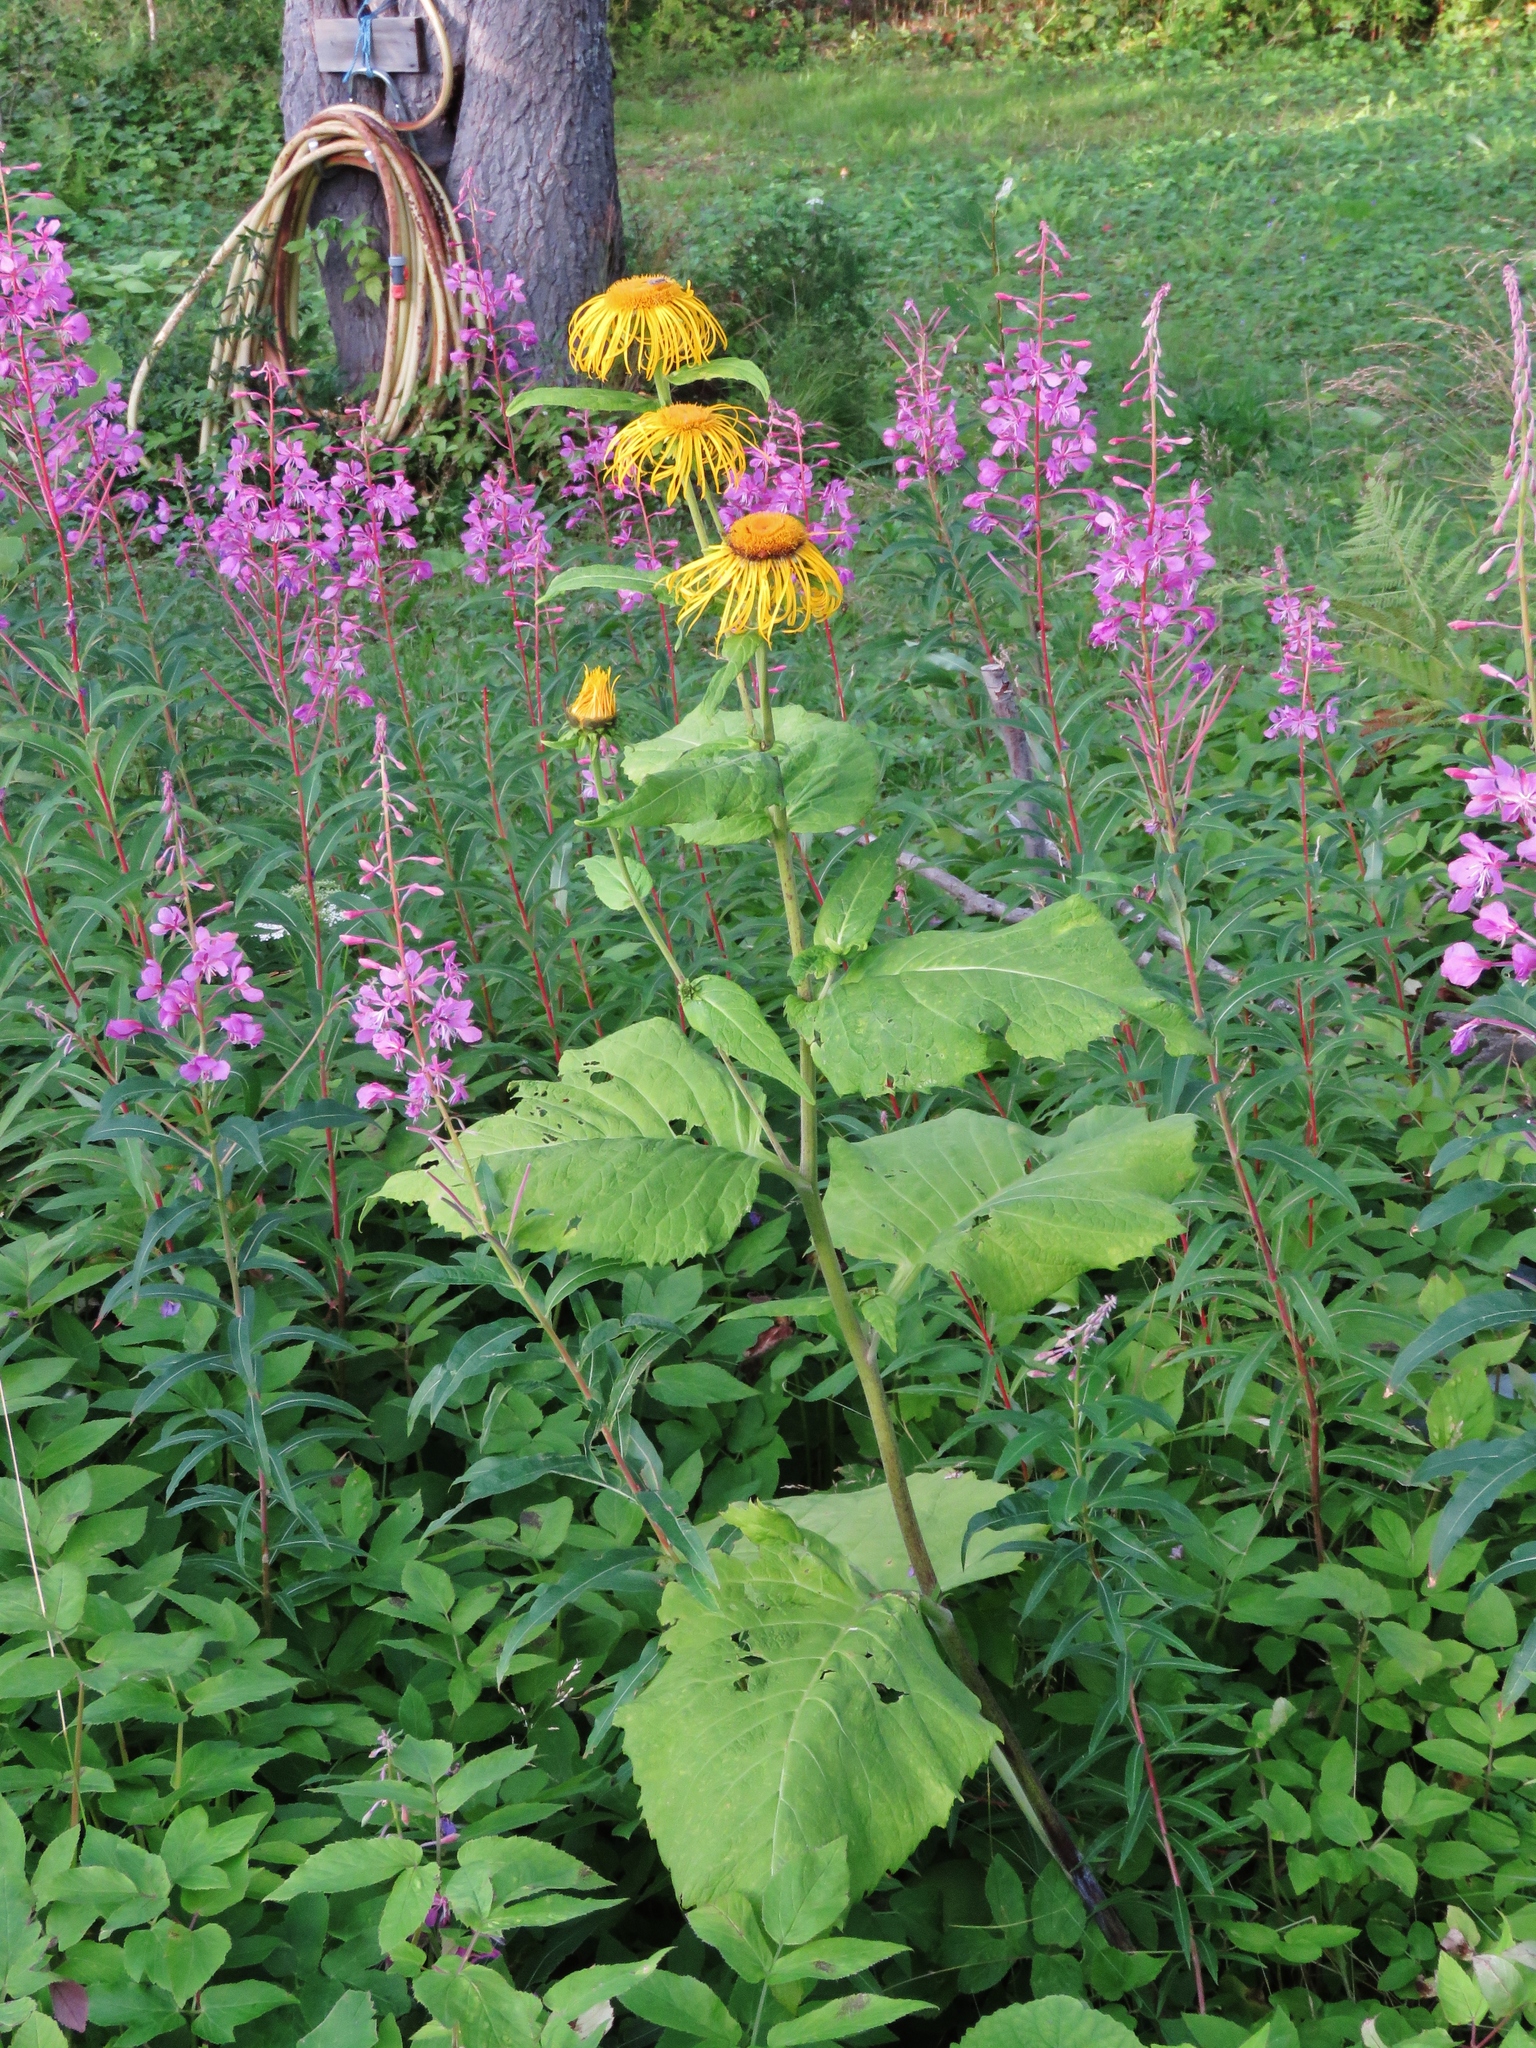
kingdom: Plantae
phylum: Tracheophyta
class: Magnoliopsida
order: Asterales
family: Asteraceae
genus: Telekia
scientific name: Telekia speciosa
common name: Yellow oxeye
